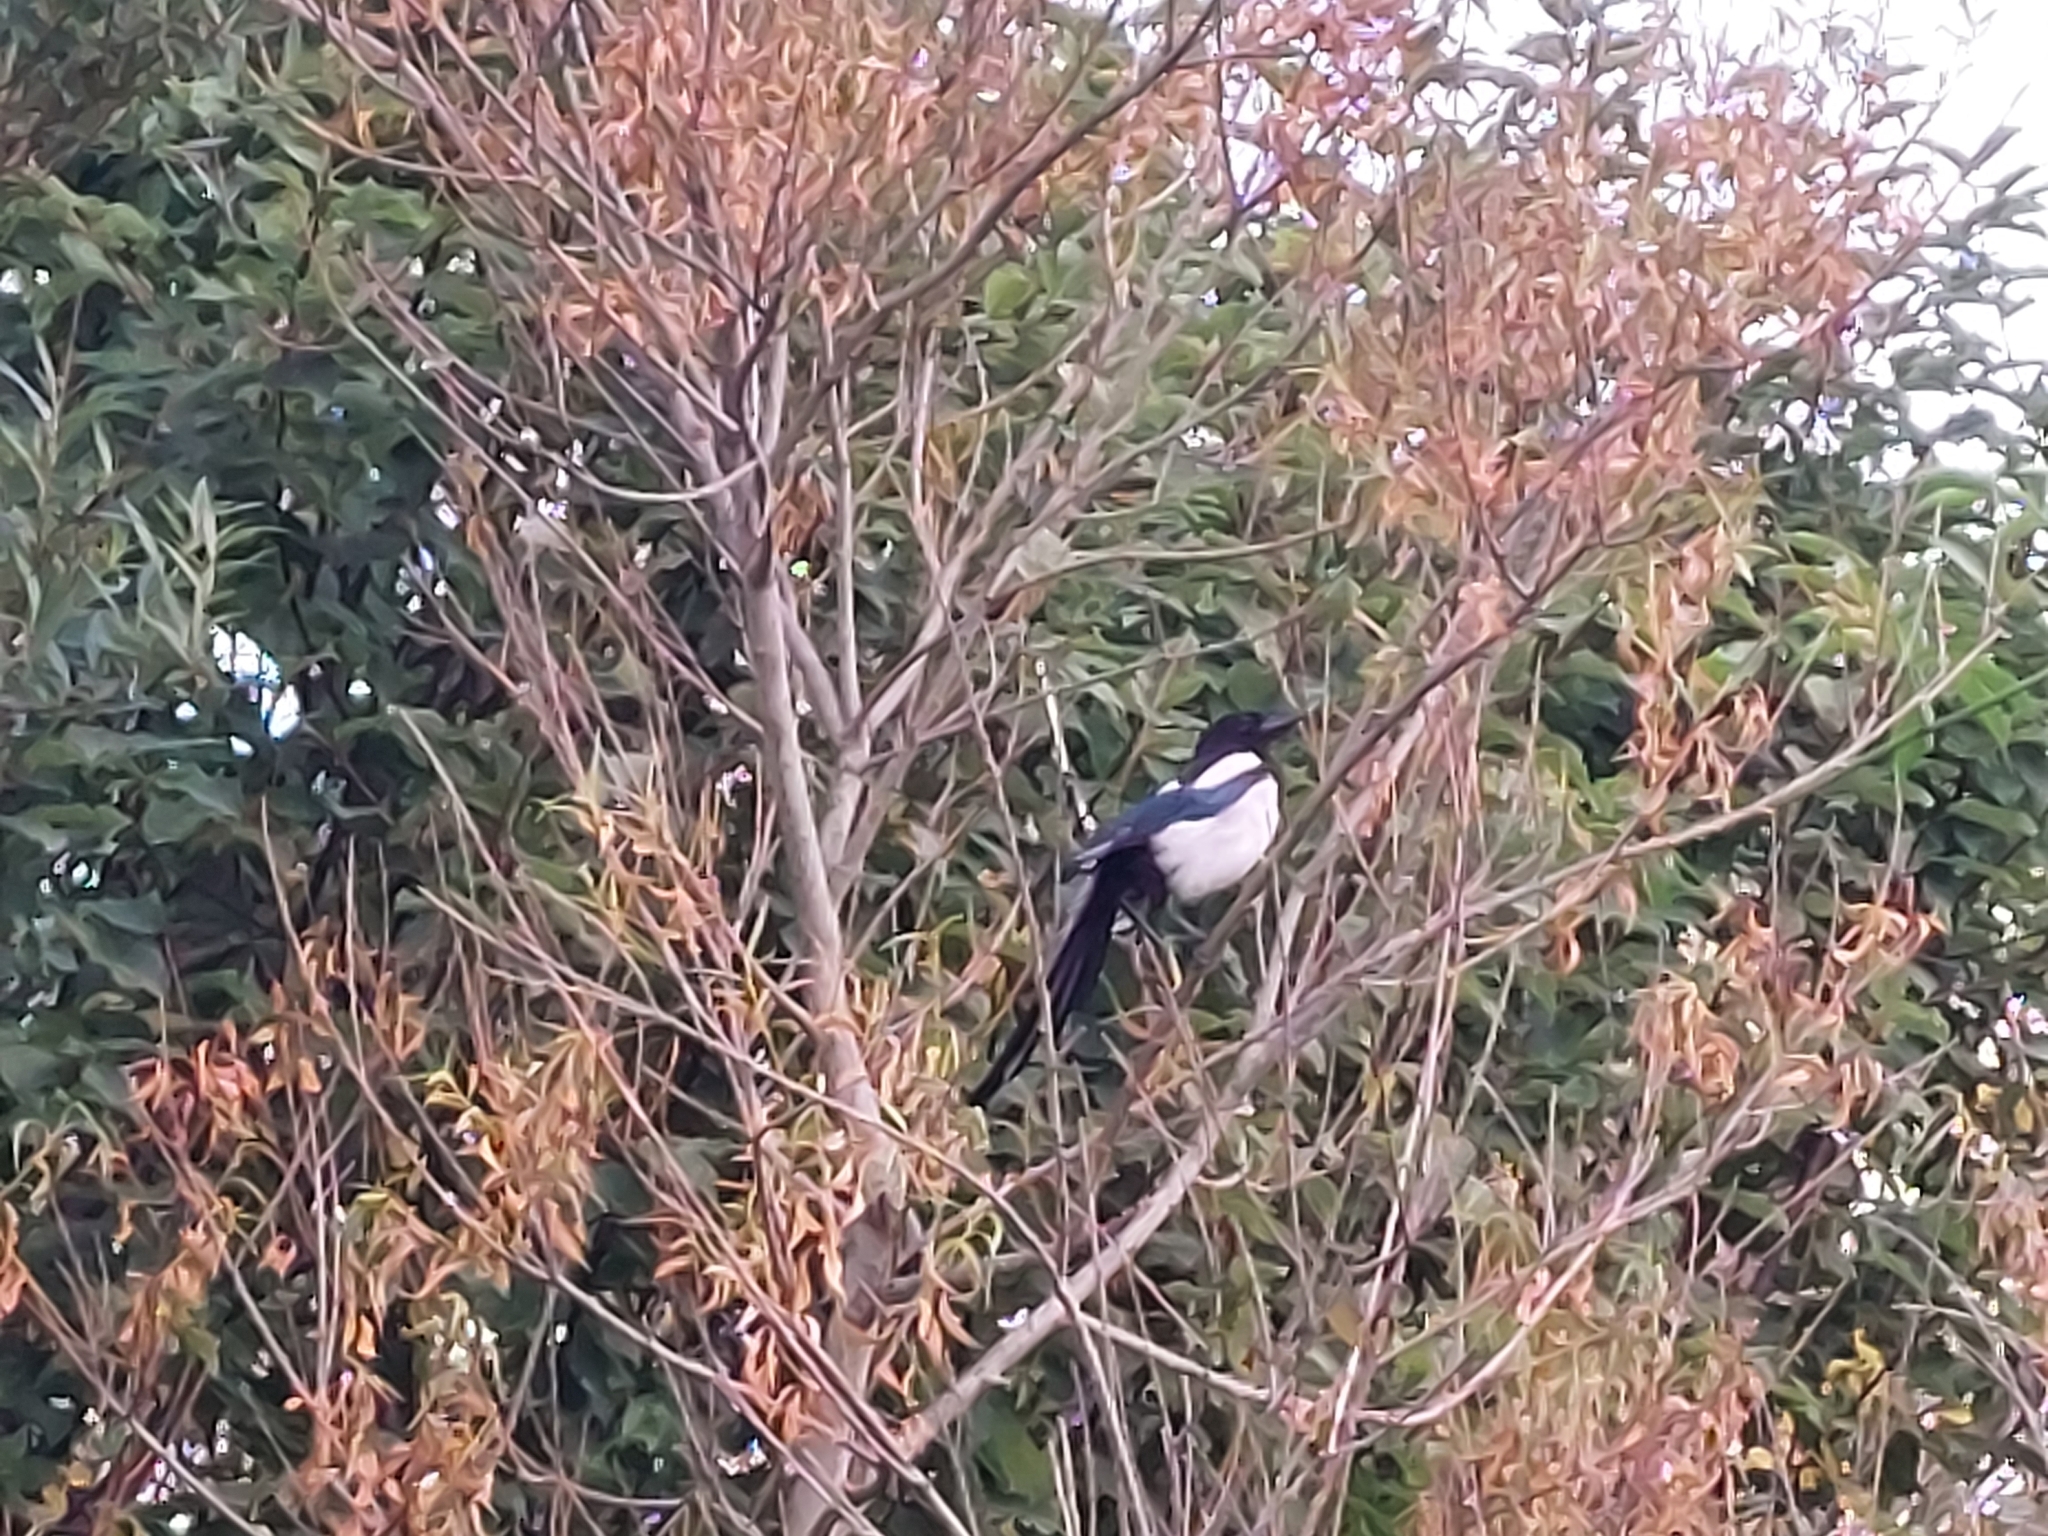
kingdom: Animalia
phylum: Chordata
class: Aves
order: Passeriformes
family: Corvidae
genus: Pica
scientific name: Pica pica
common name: Eurasian magpie
